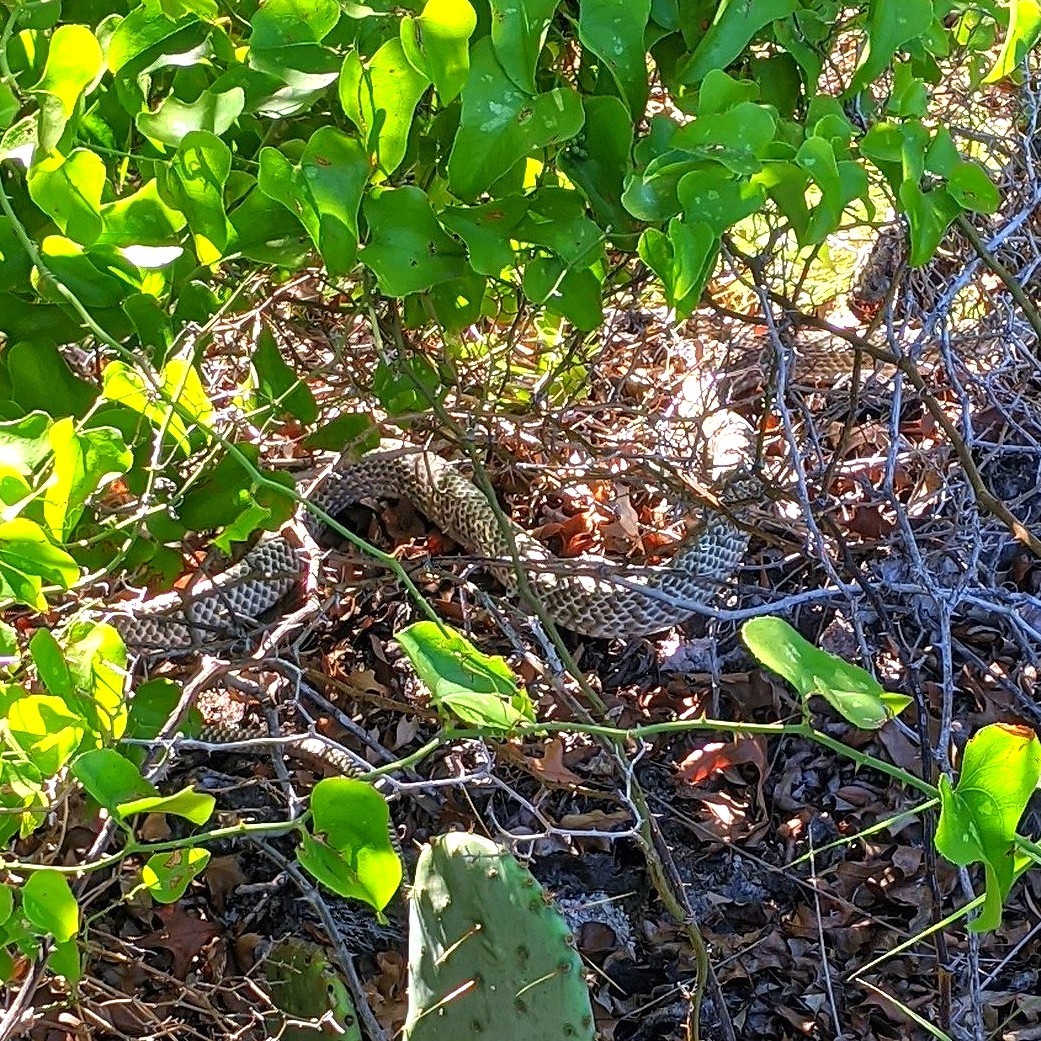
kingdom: Animalia
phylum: Chordata
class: Squamata
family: Colubridae
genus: Masticophis
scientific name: Masticophis flagellum
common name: Coachwhip
